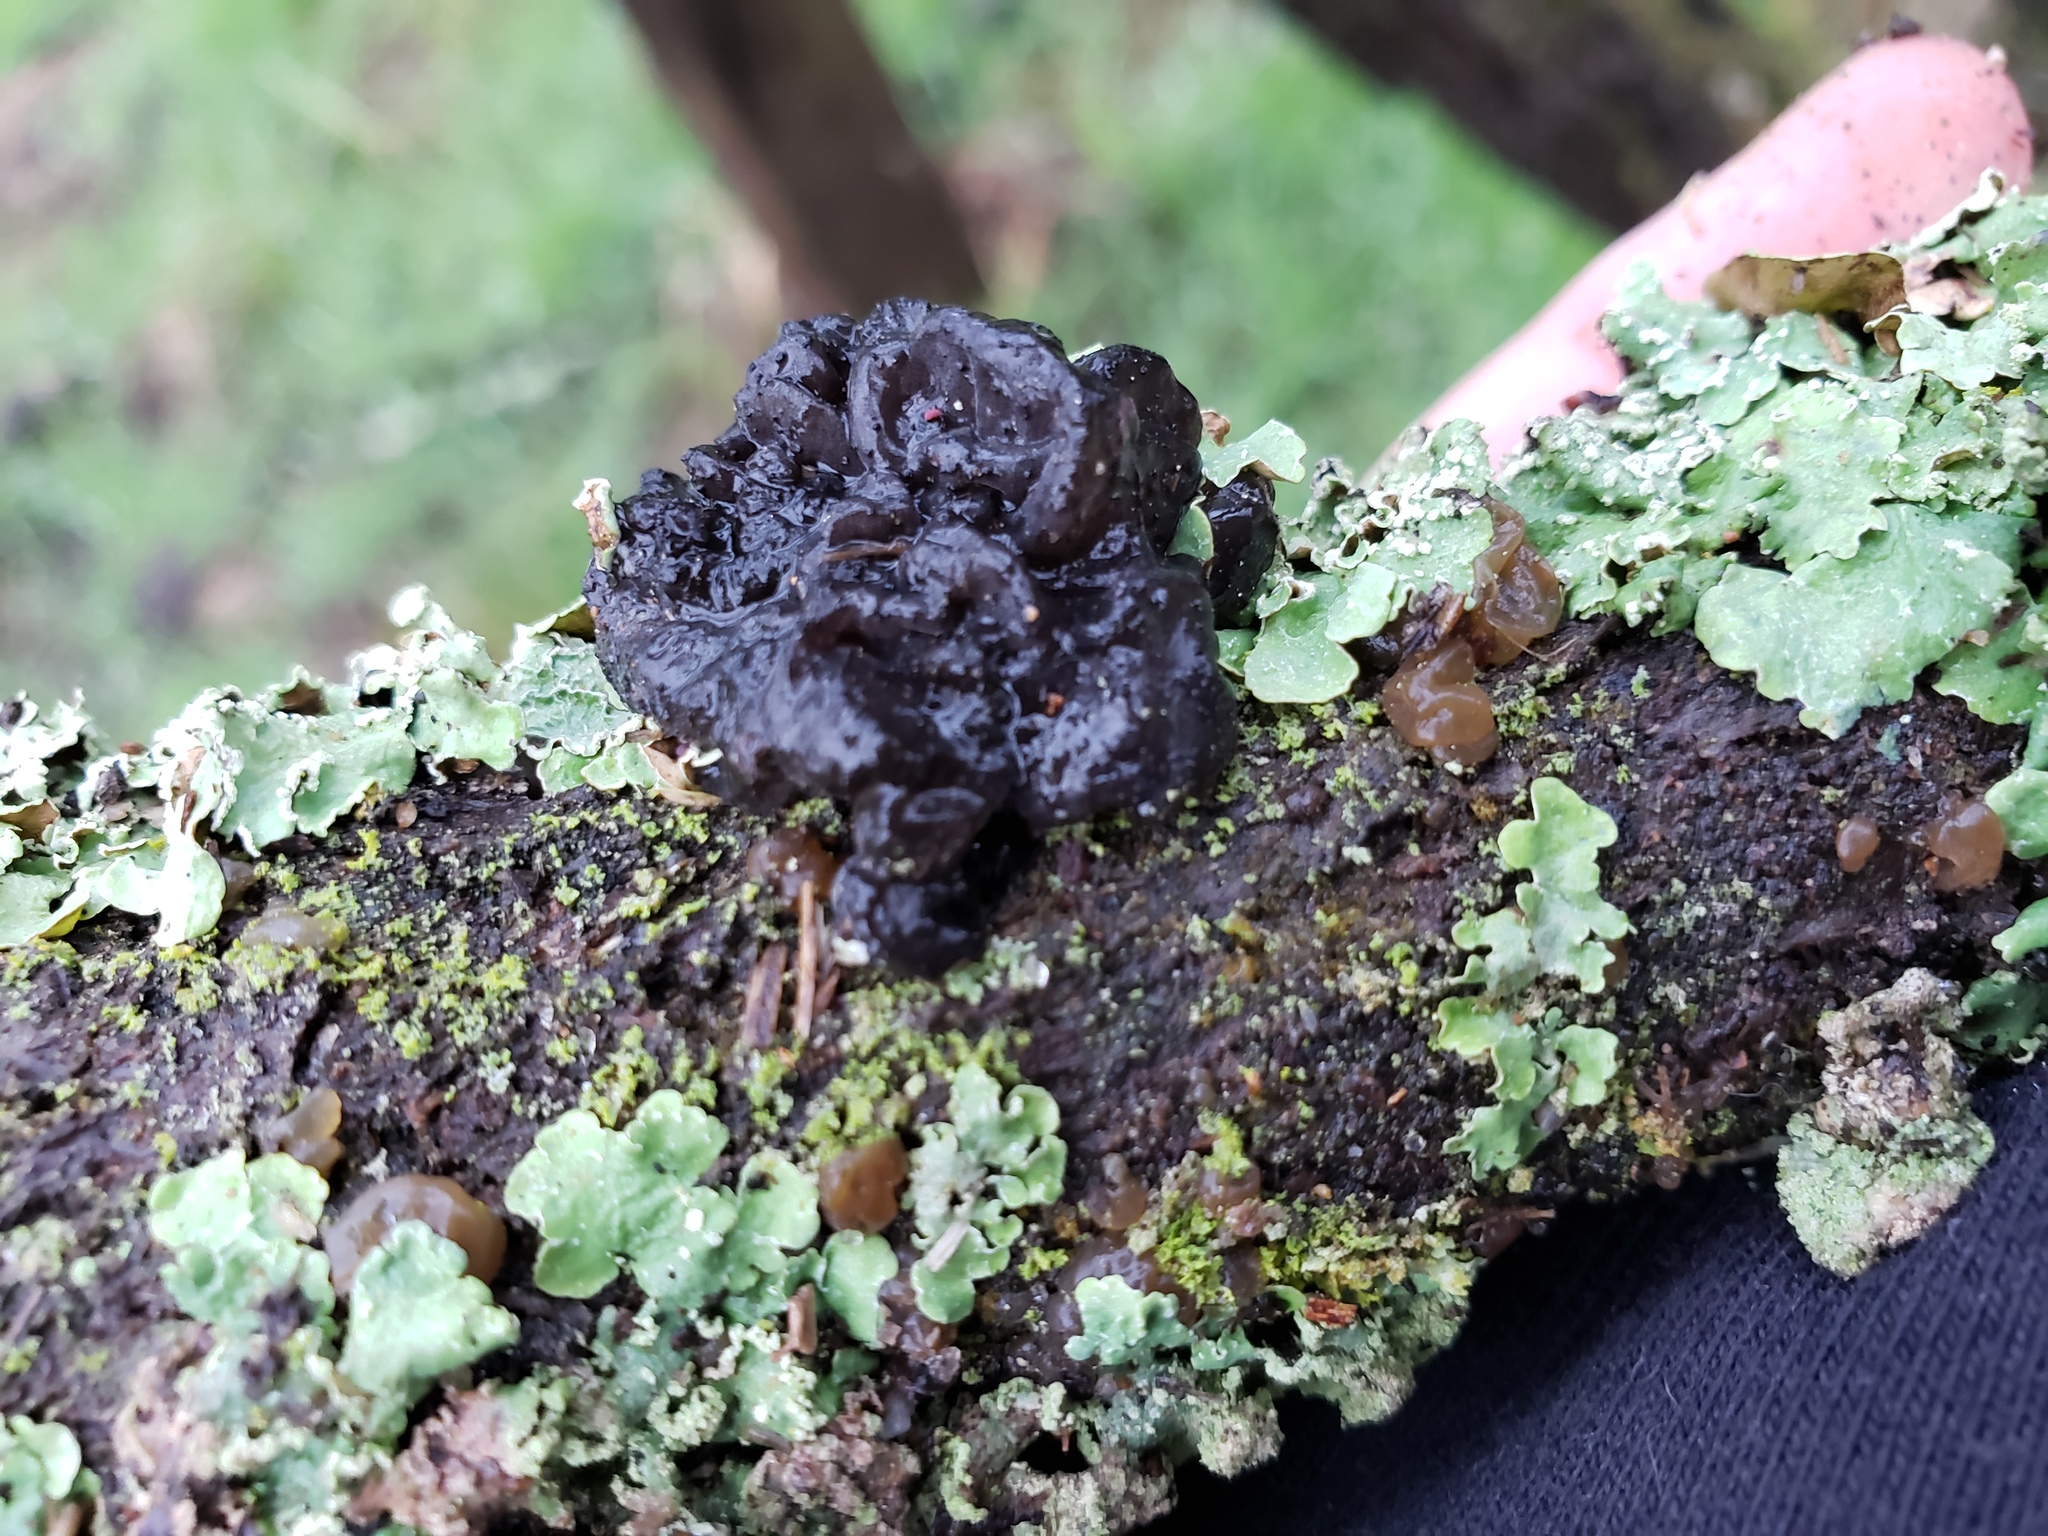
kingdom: Fungi
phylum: Basidiomycota
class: Agaricomycetes
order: Auriculariales
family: Auriculariaceae
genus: Exidia
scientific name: Exidia glandulosa
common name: Witches' butter
